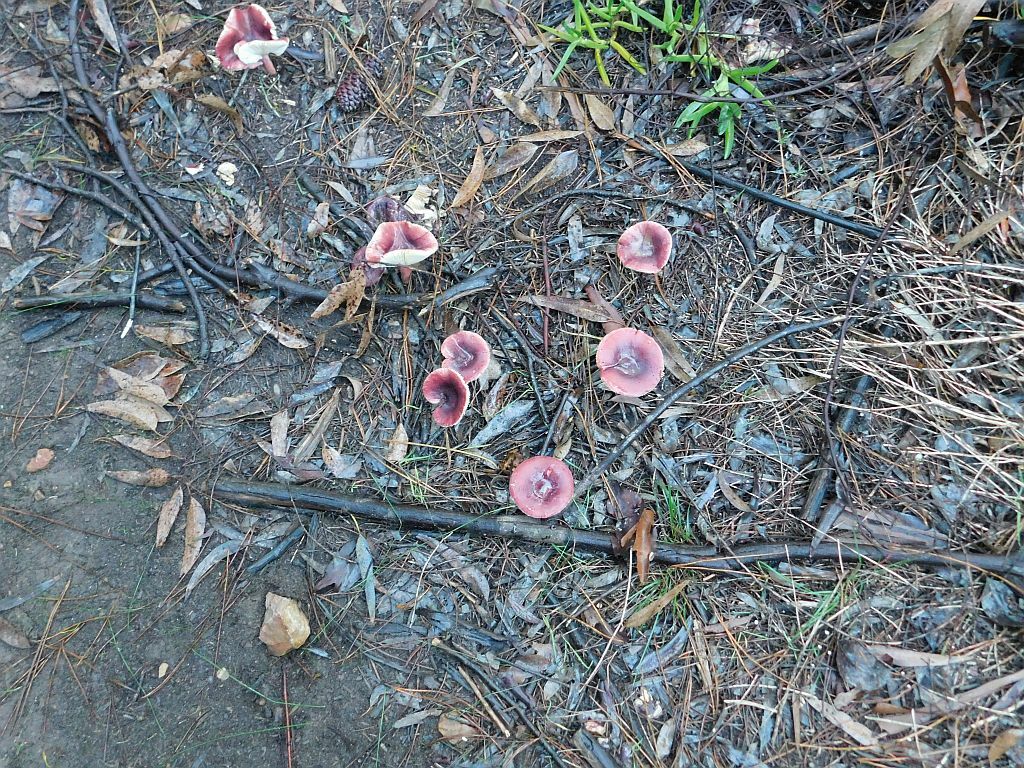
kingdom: Fungi
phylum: Basidiomycota
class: Agaricomycetes
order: Russulales
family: Russulaceae
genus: Russula
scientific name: Russula sardonia
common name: Primrose brittlegill
